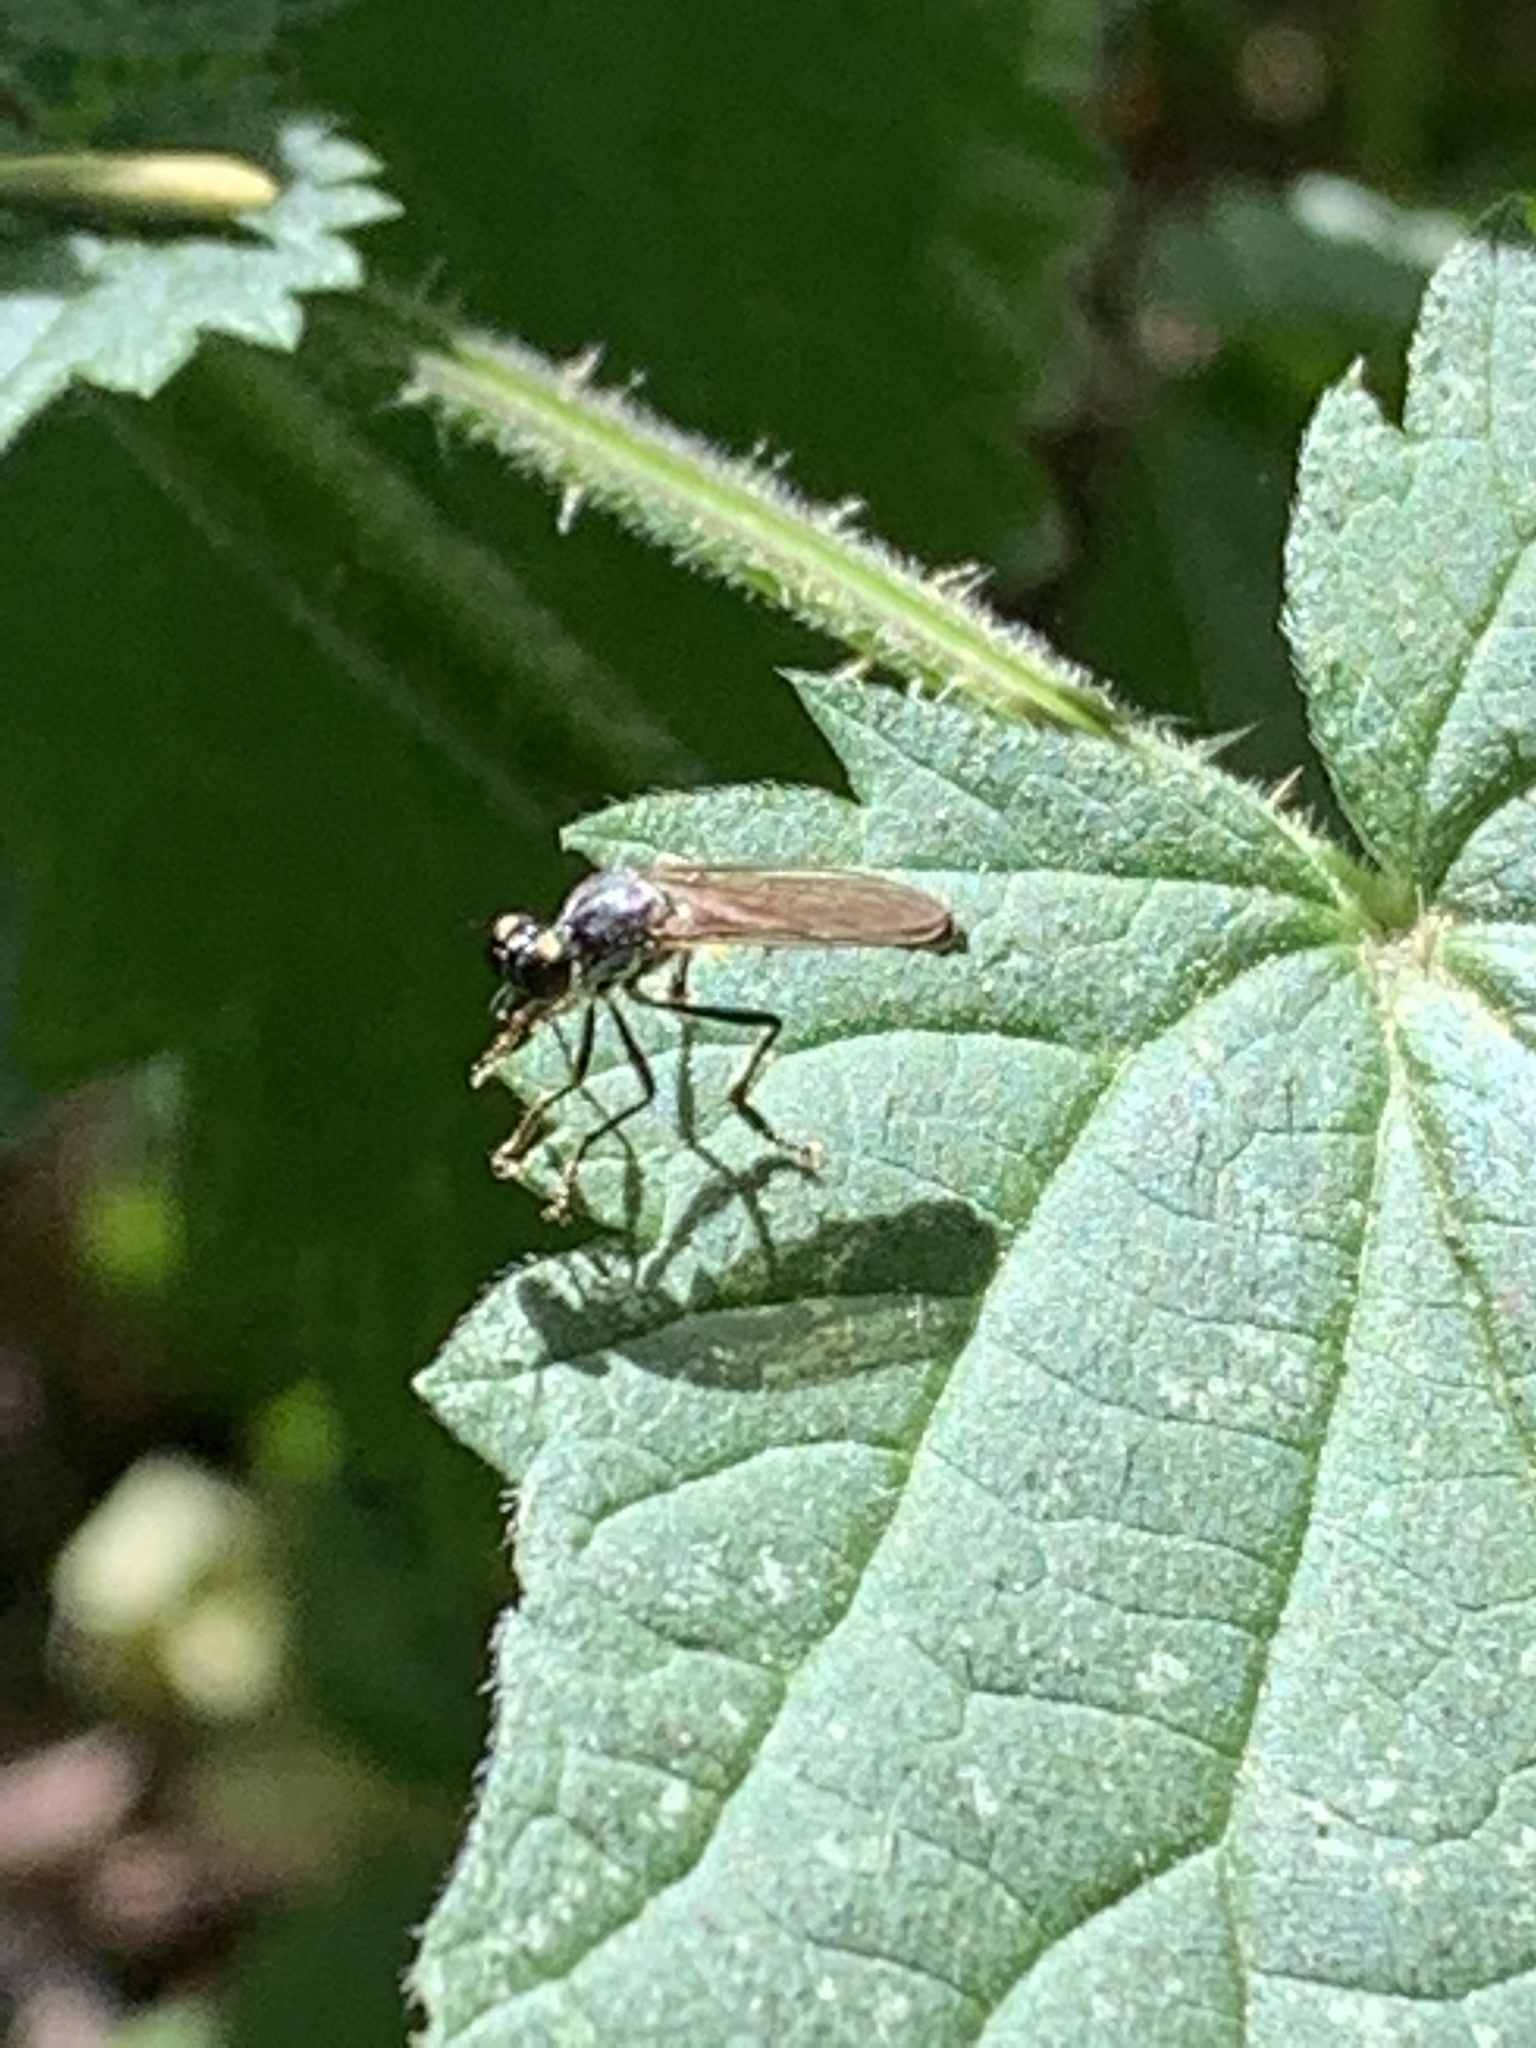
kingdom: Animalia
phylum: Arthropoda
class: Insecta
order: Diptera
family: Asilidae
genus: Dioctria
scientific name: Dioctria hyalipennis
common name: Stripe-legged robberfly
